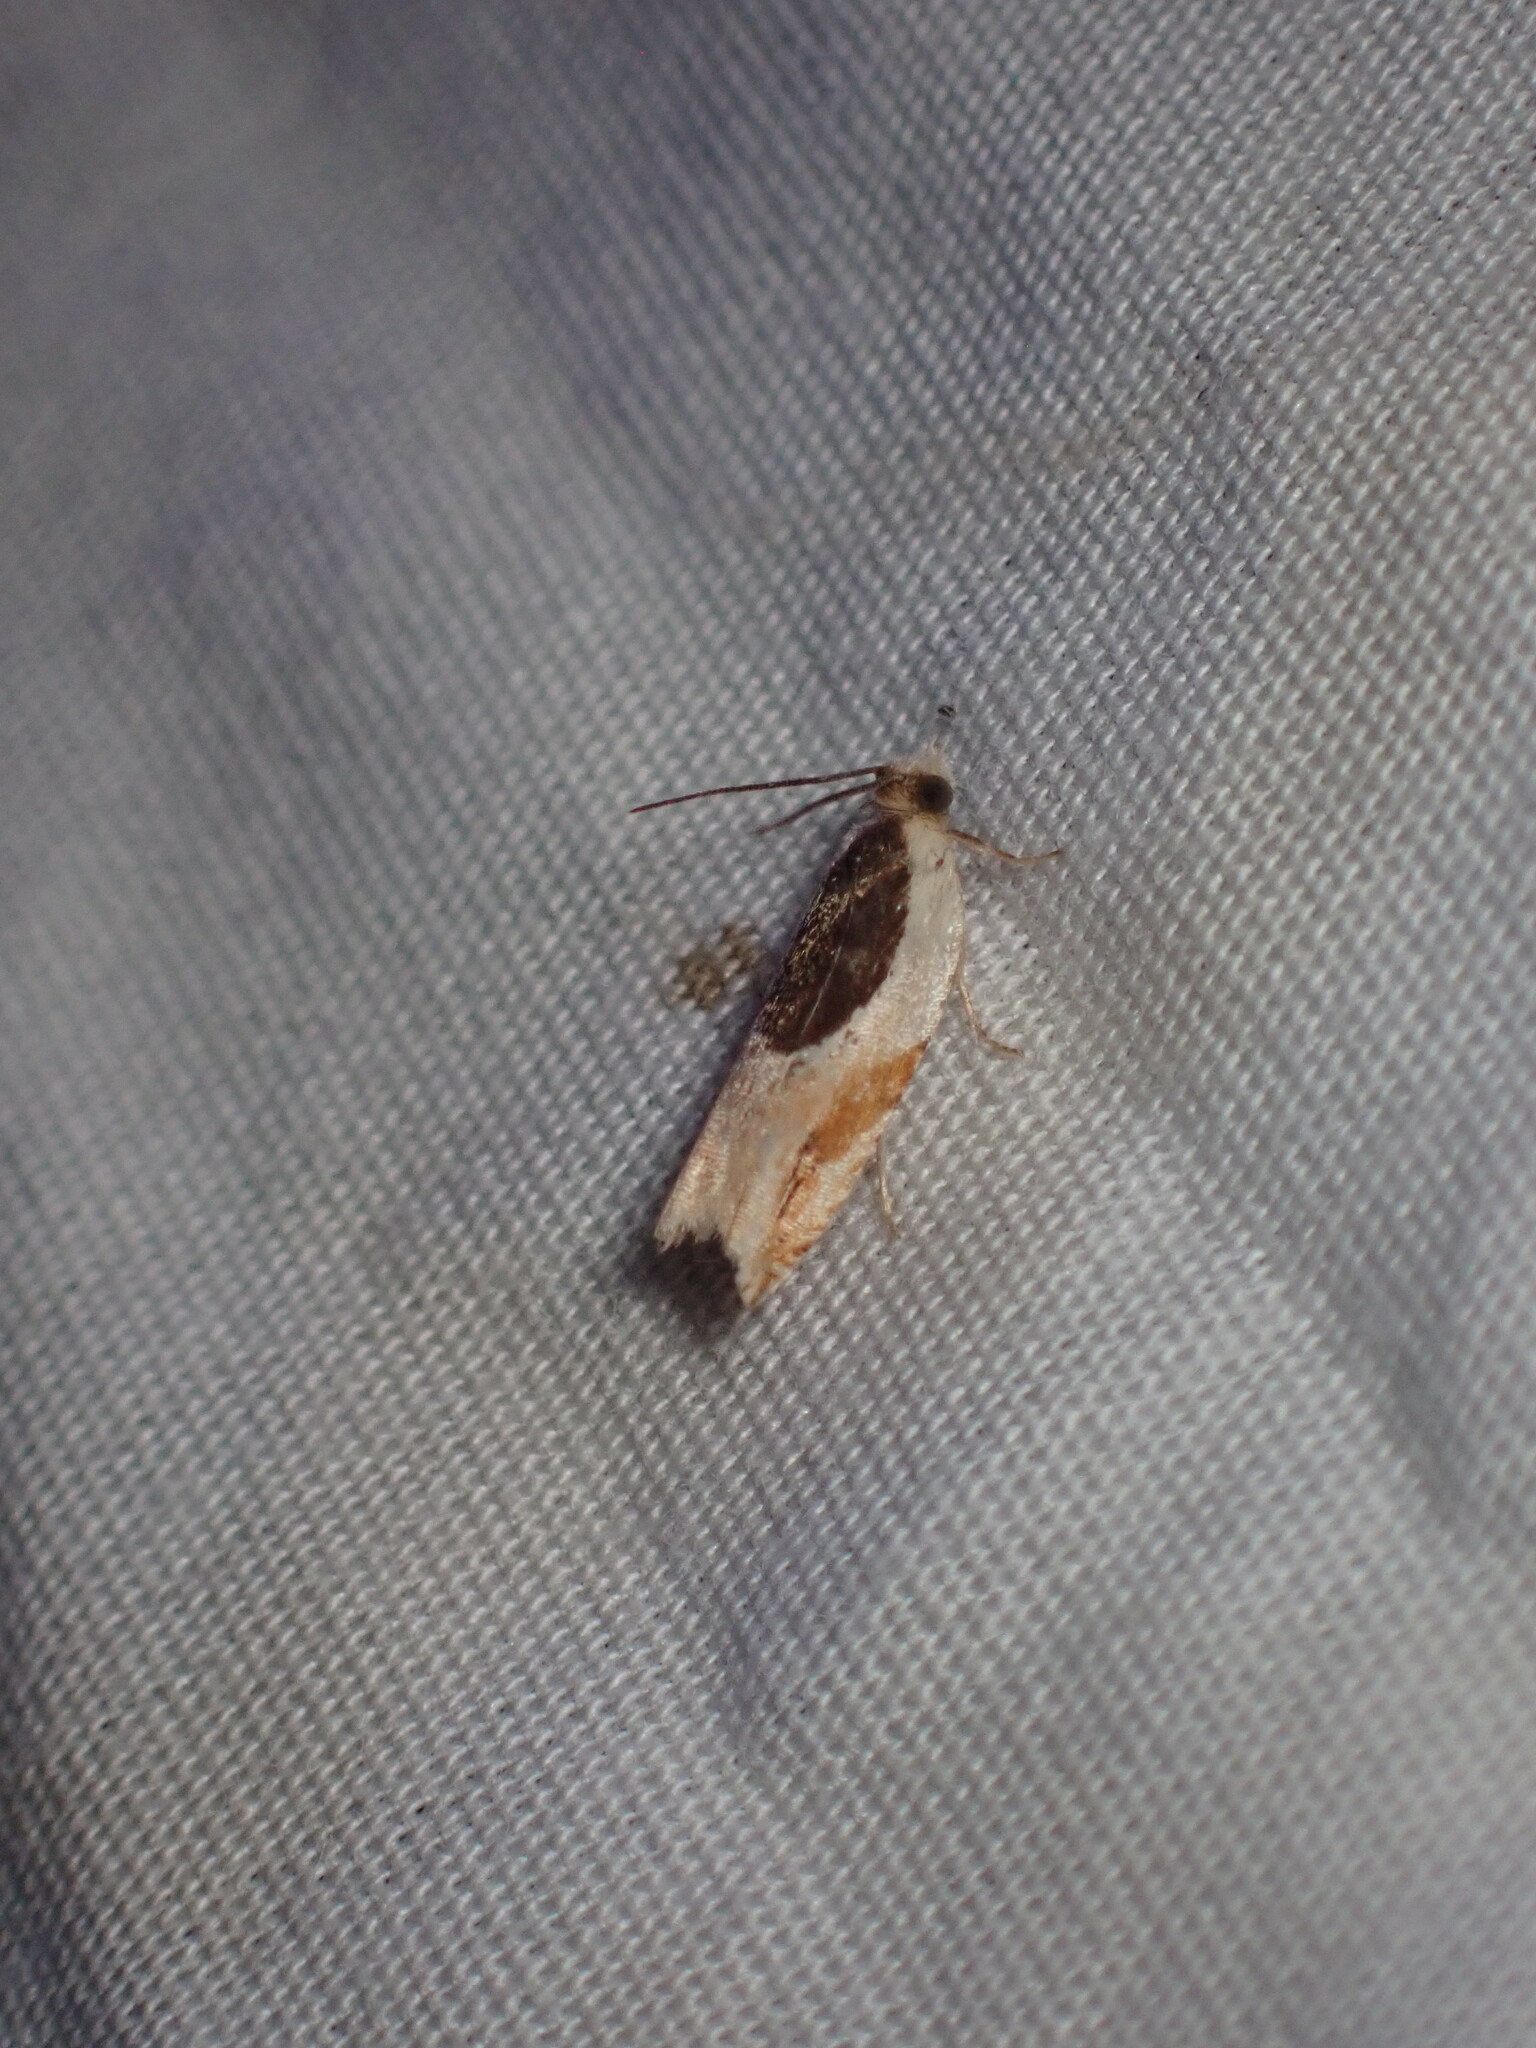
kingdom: Animalia
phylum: Arthropoda
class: Insecta
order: Lepidoptera
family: Tortricidae
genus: Ancylis
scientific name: Ancylis burgessiana
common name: Oak leaffolder moth
